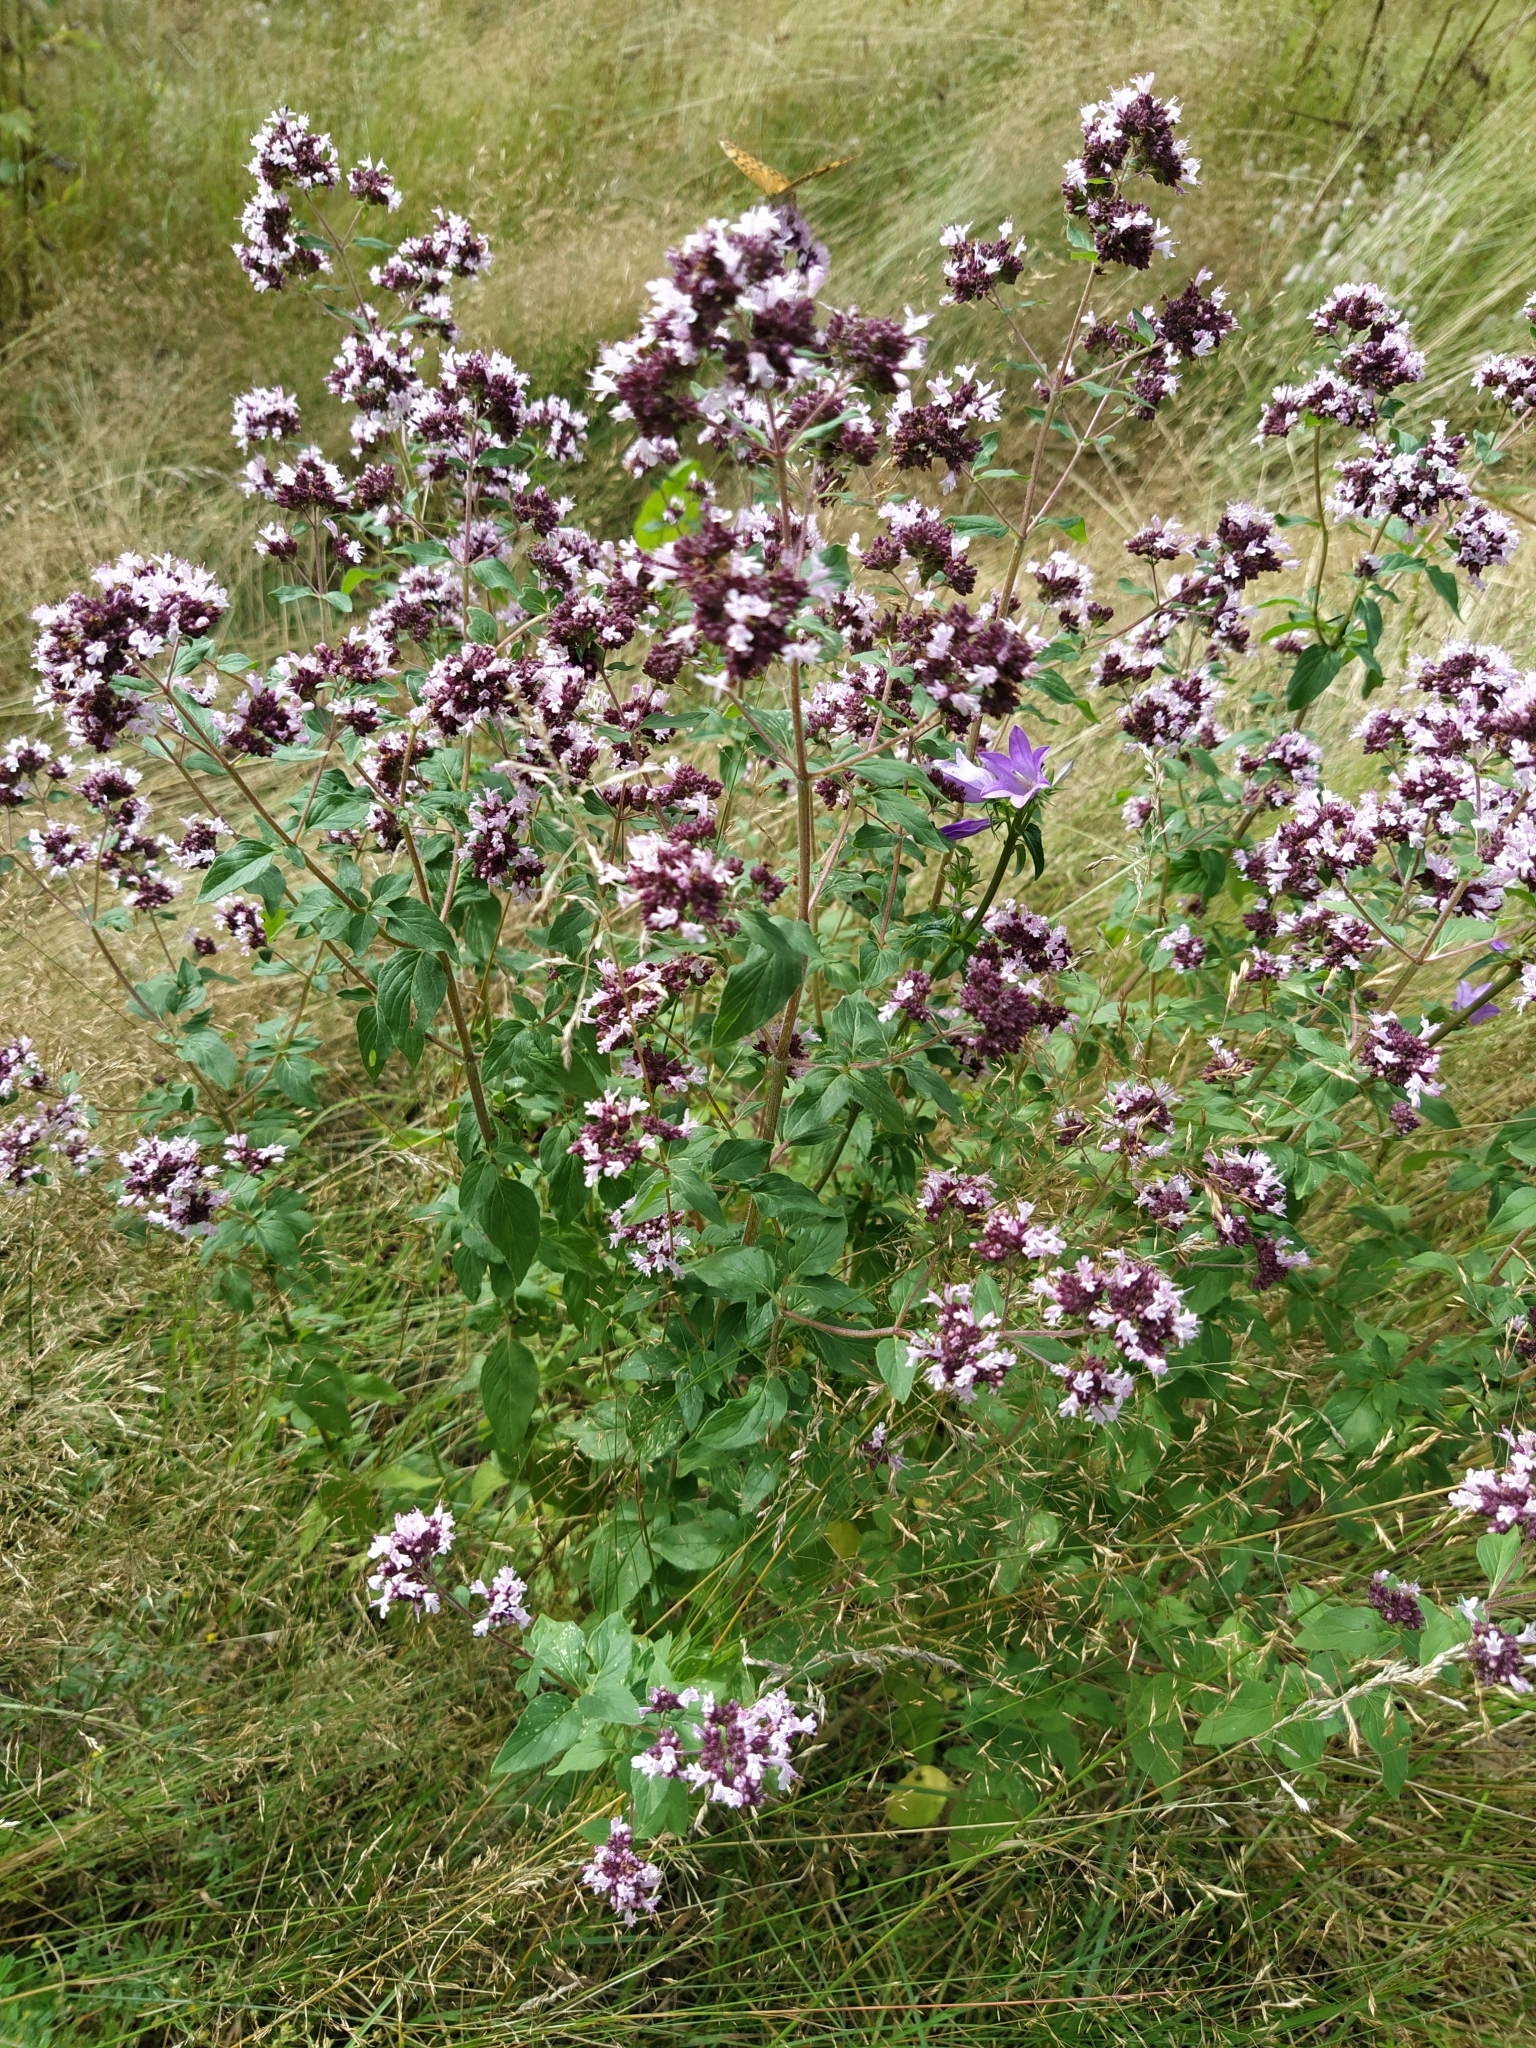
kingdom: Plantae
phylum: Tracheophyta
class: Magnoliopsida
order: Lamiales
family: Lamiaceae
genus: Origanum
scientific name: Origanum vulgare
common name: Wild marjoram
